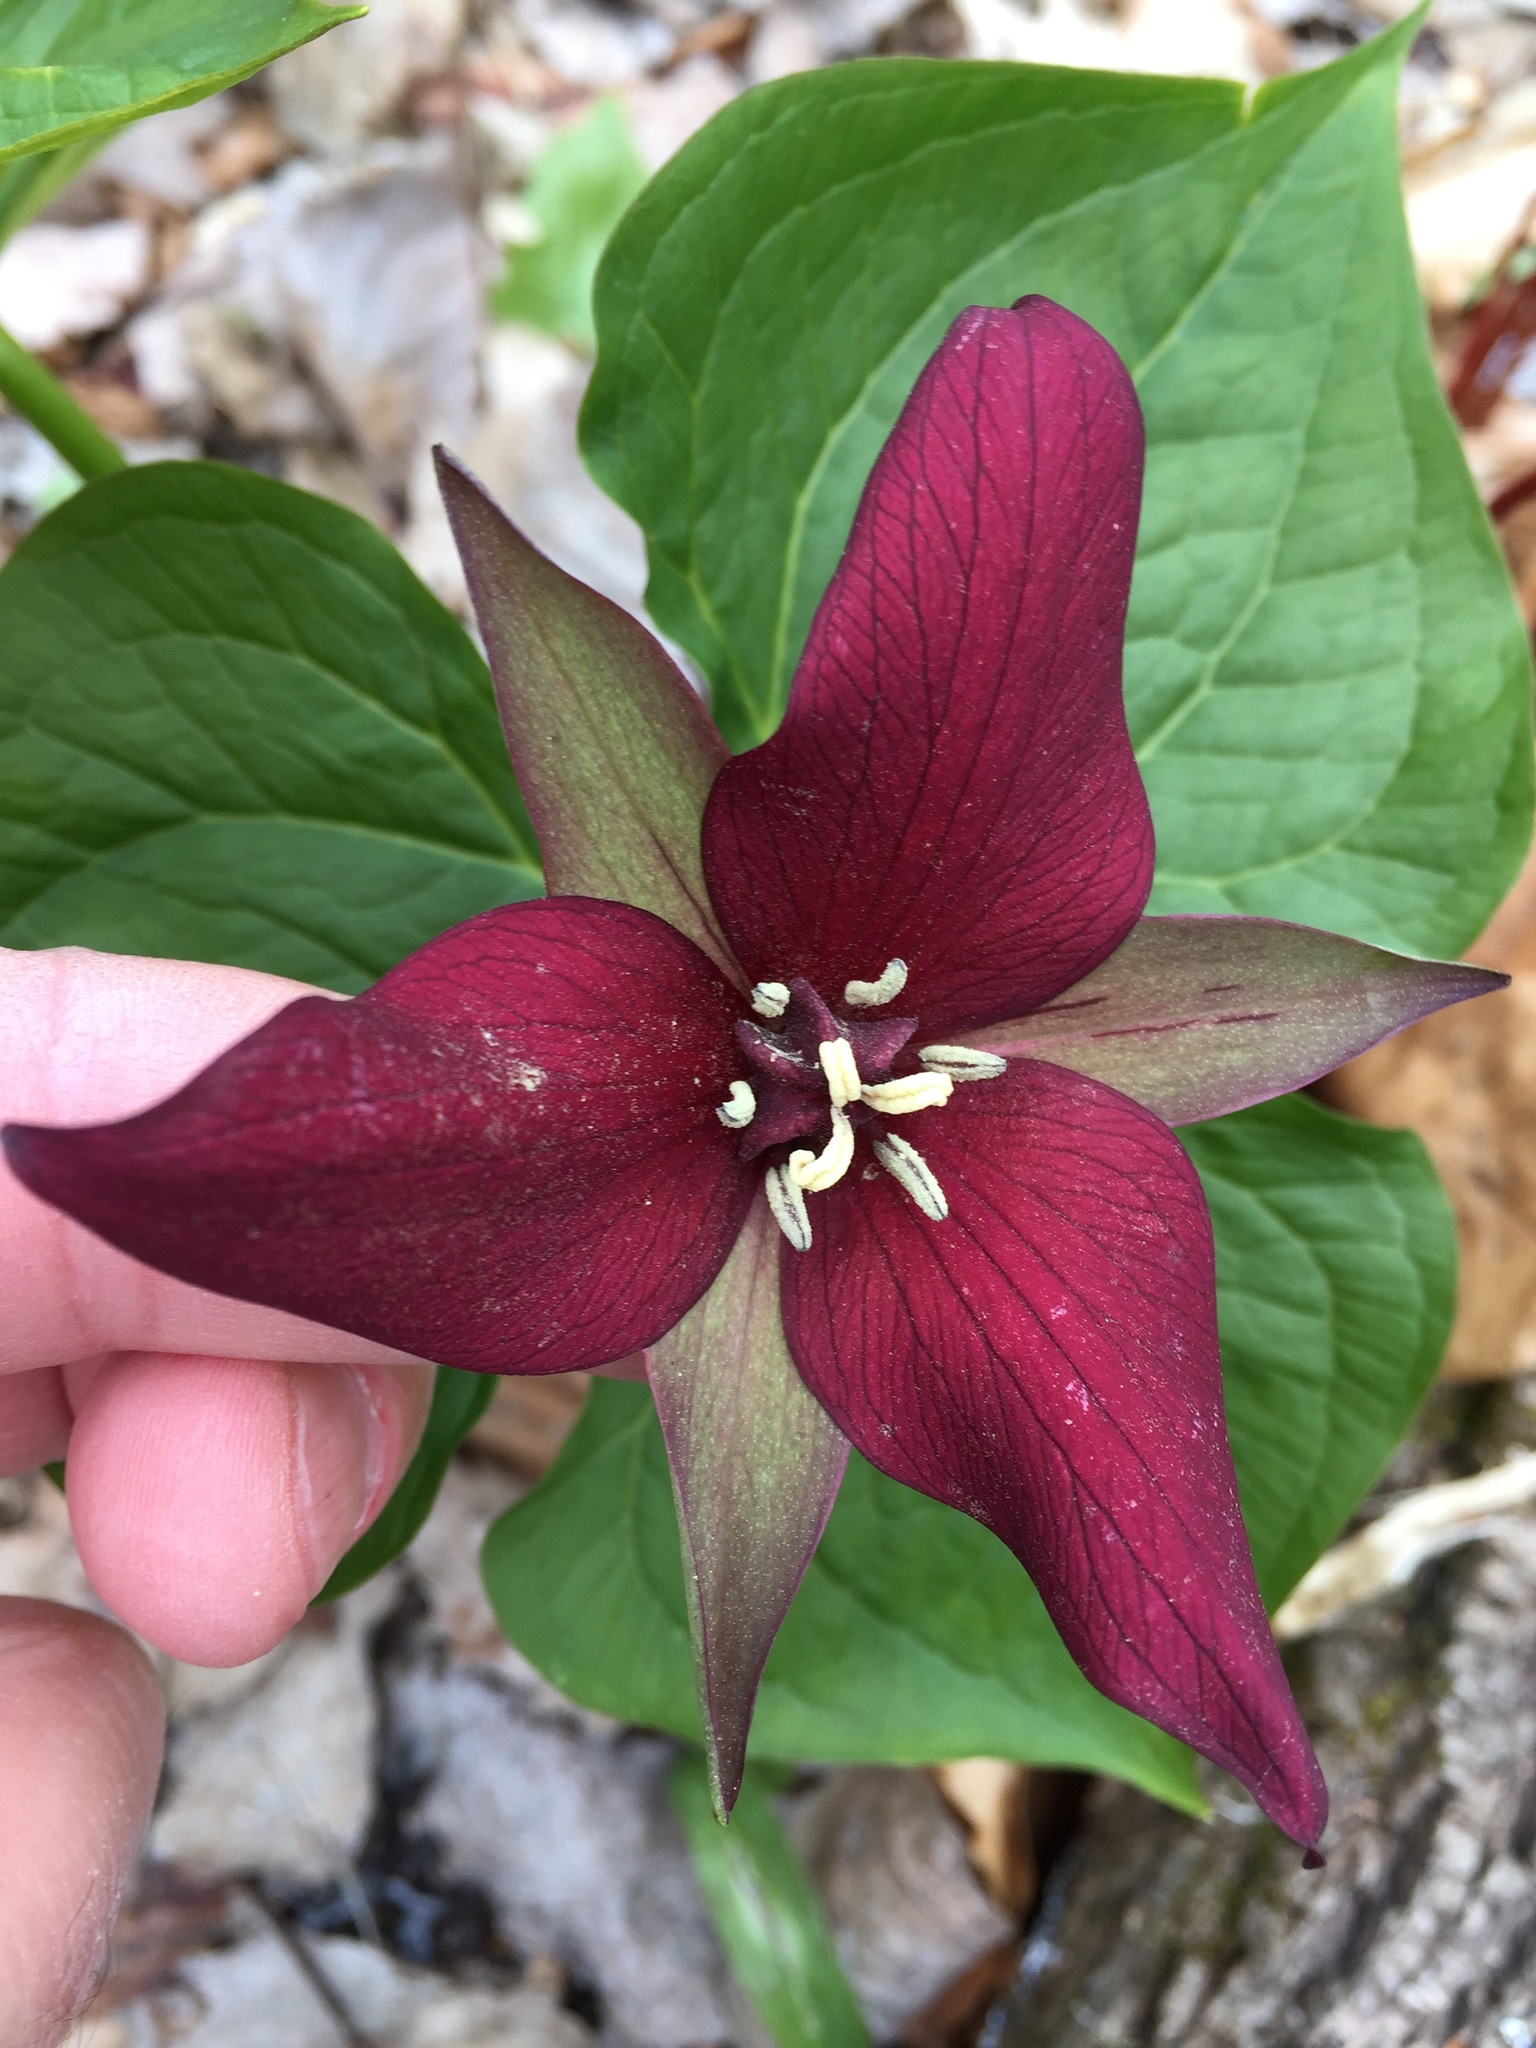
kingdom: Plantae
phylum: Tracheophyta
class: Liliopsida
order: Liliales
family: Melanthiaceae
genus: Trillium
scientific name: Trillium erectum
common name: Purple trillium
